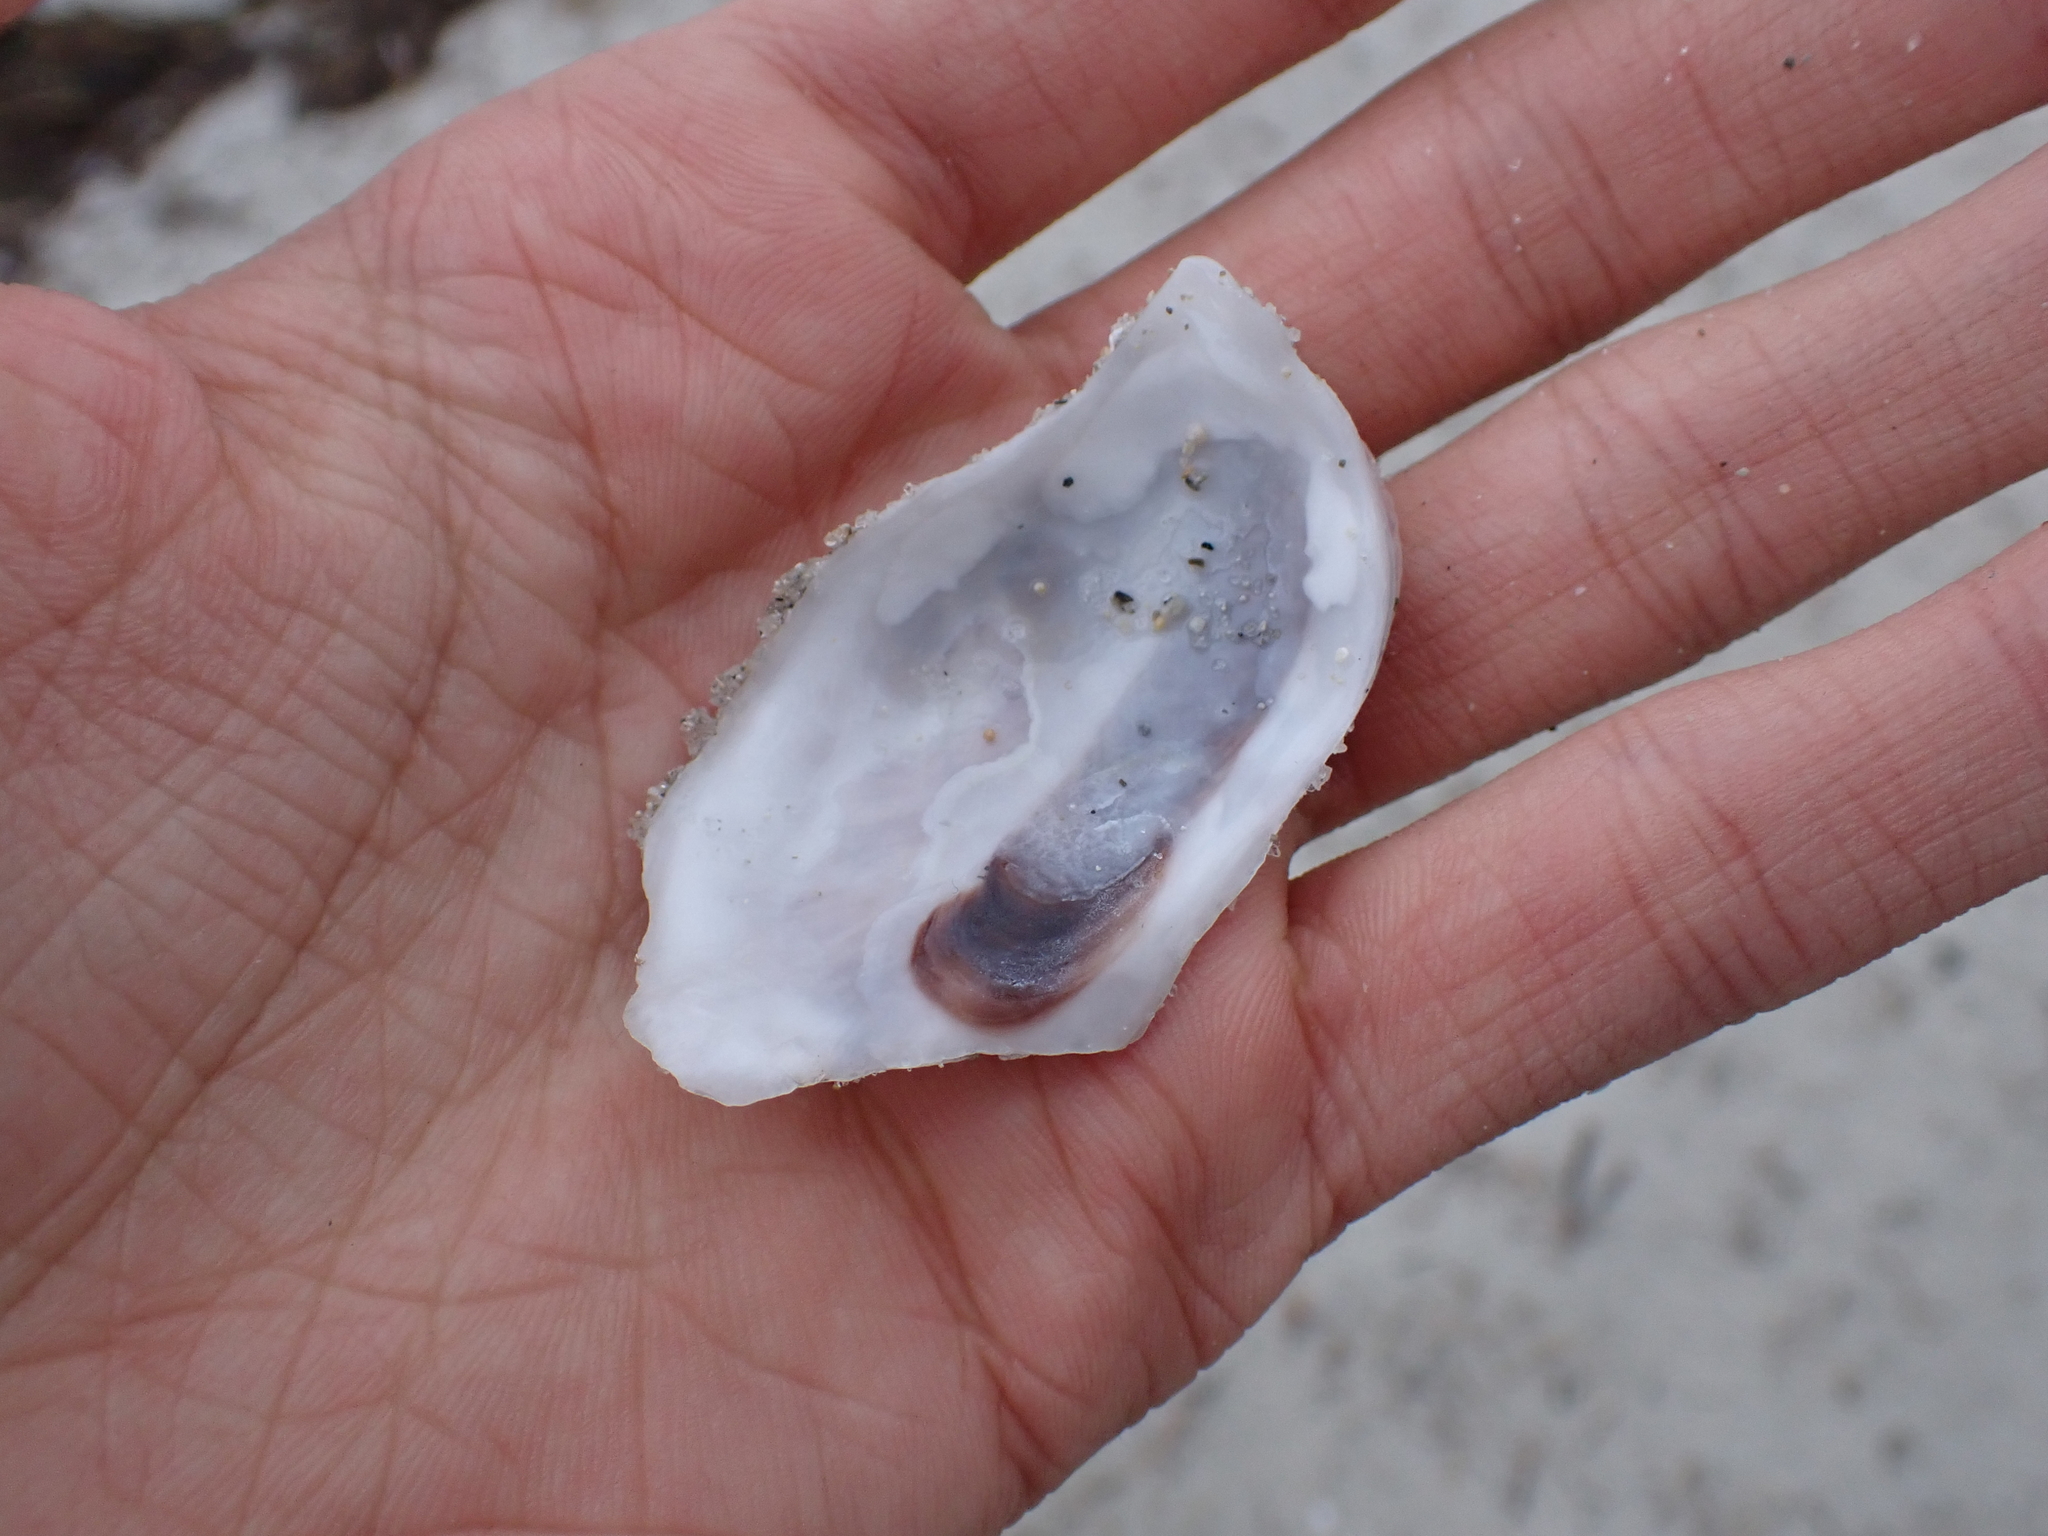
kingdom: Animalia
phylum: Mollusca
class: Bivalvia
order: Ostreida
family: Ostreidae
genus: Crassostrea
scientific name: Crassostrea virginica
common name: American oyster
